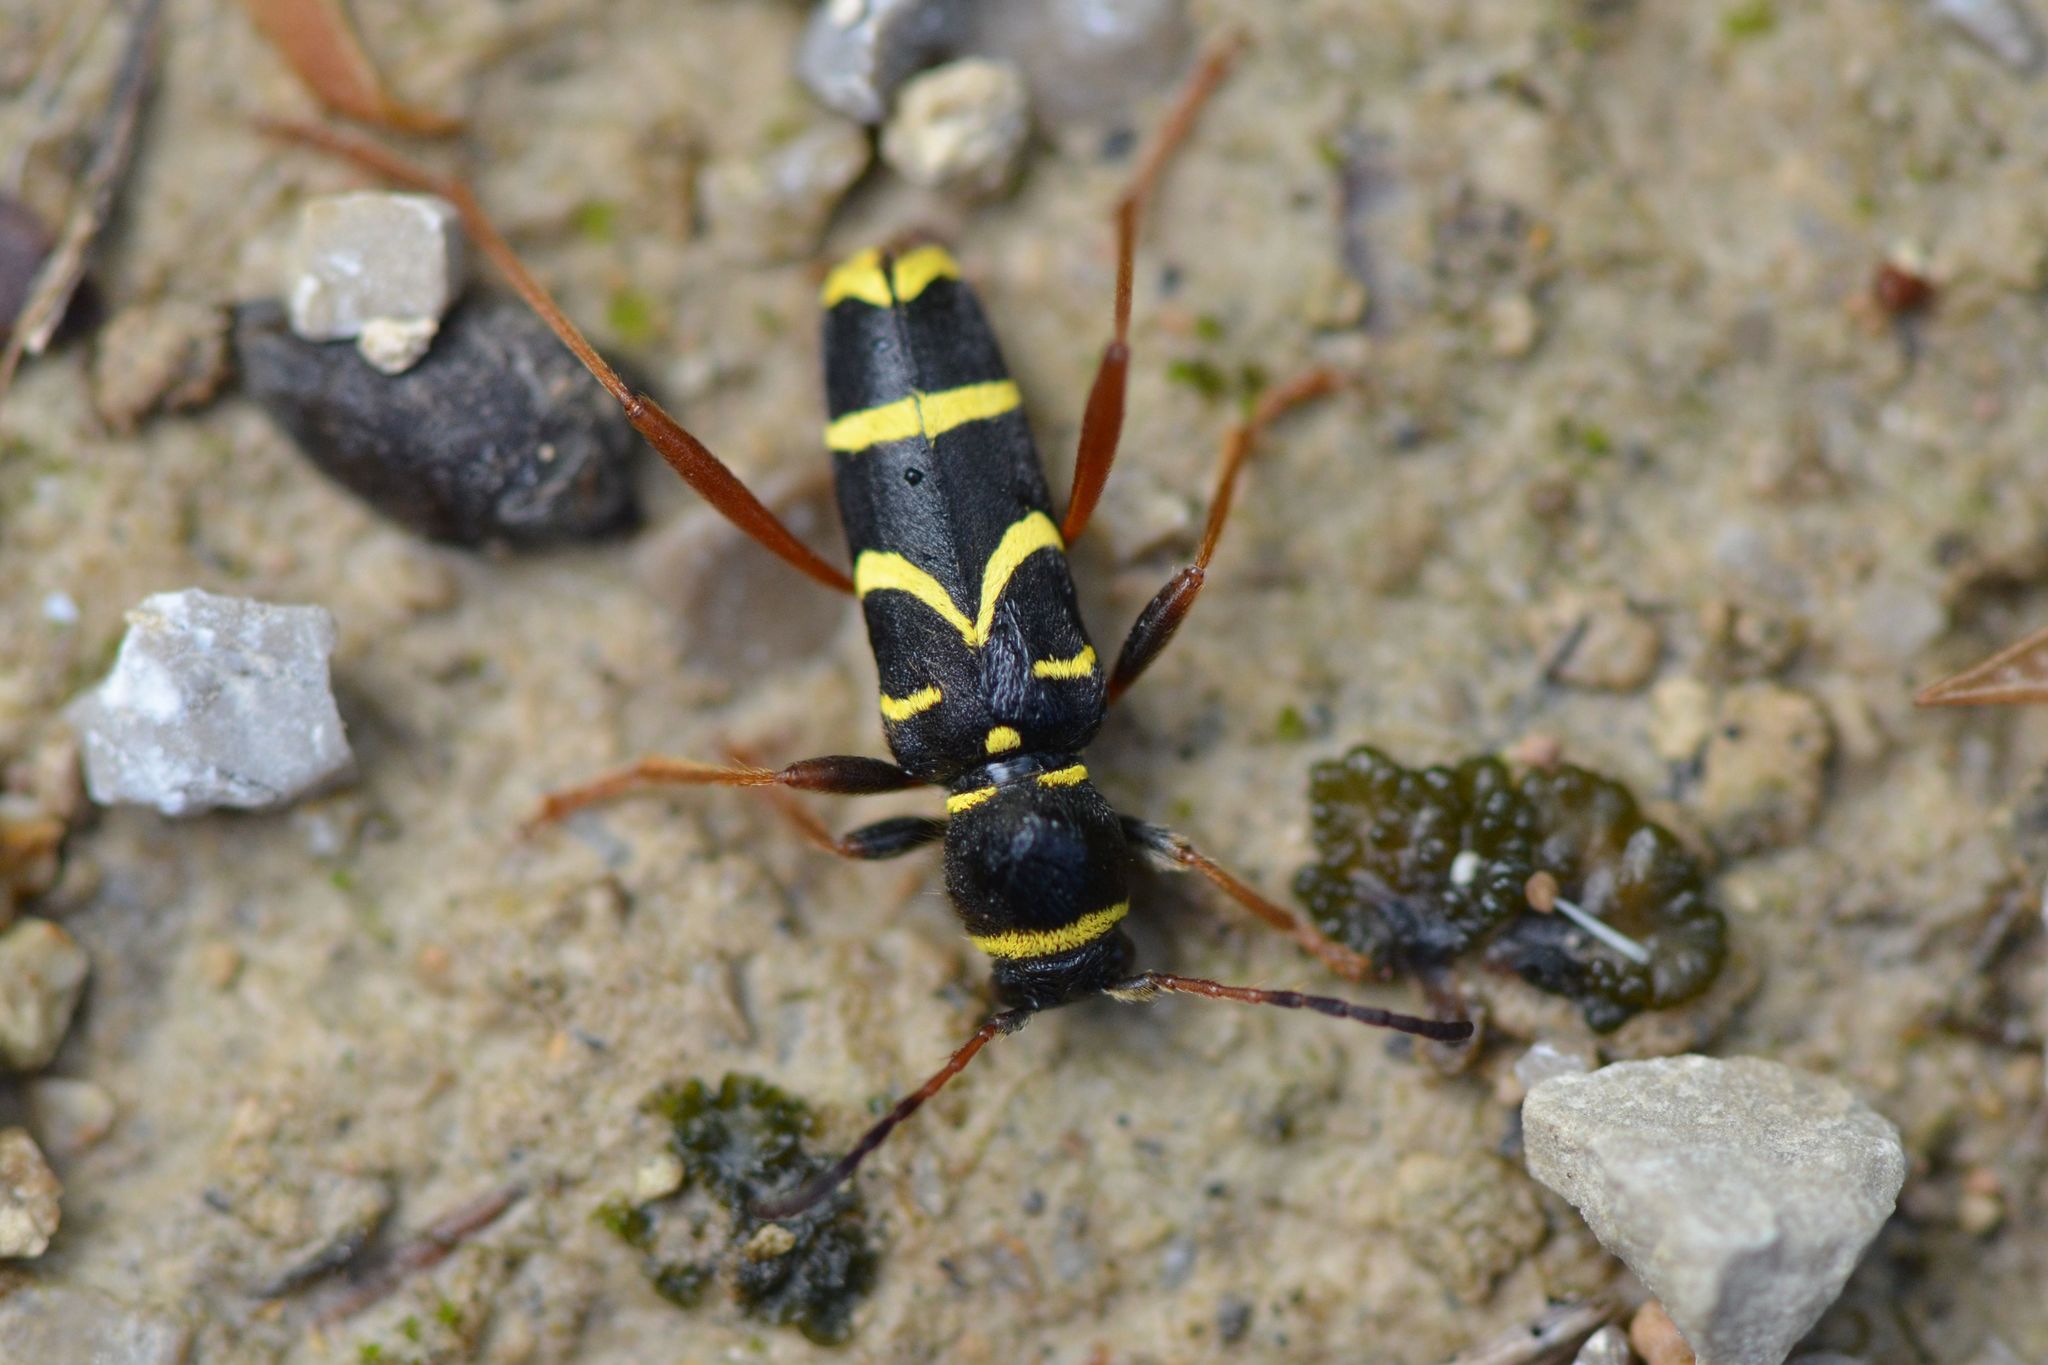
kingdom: Animalia
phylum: Arthropoda
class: Insecta
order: Coleoptera
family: Cerambycidae
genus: Clytus
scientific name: Clytus arietis
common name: Wasp beetle
